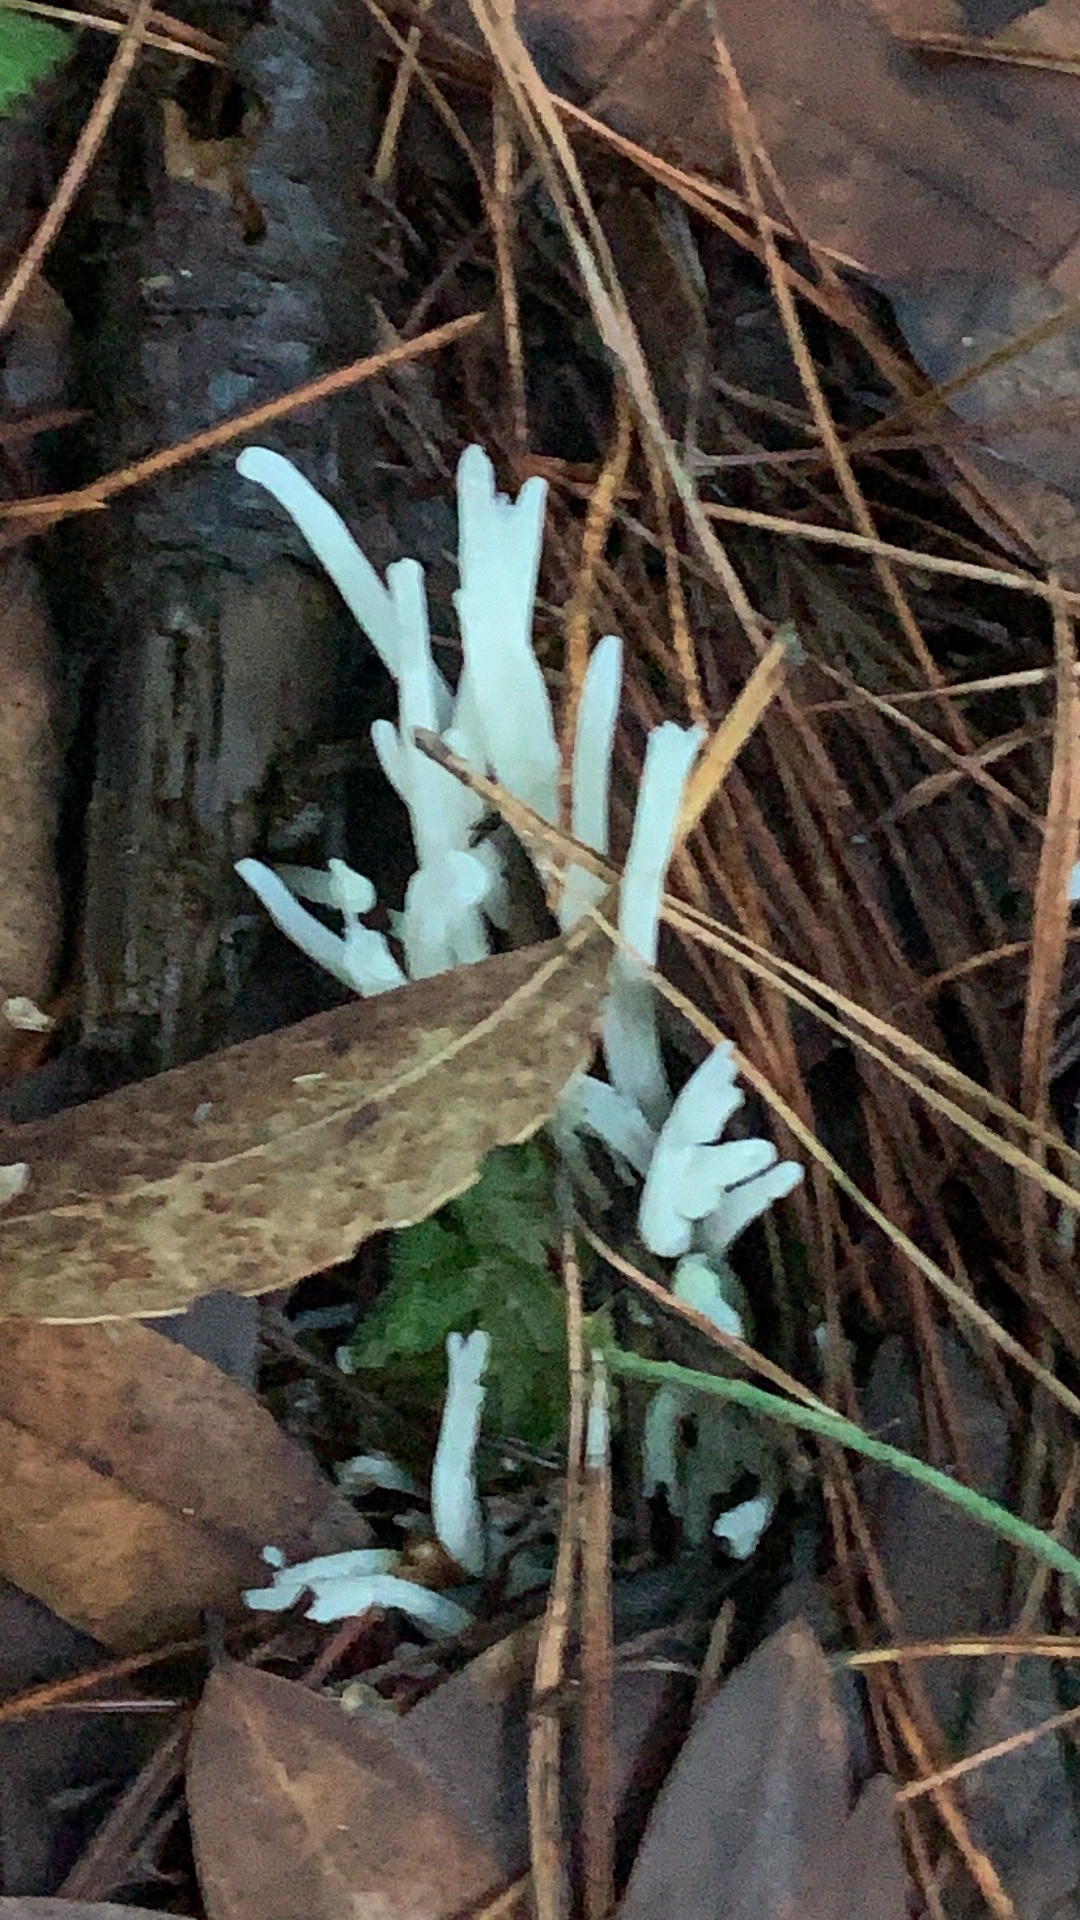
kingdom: Fungi
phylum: Basidiomycota
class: Agaricomycetes
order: Agaricales
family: Clavariaceae
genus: Clavaria
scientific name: Clavaria fragilis
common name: White spindles
